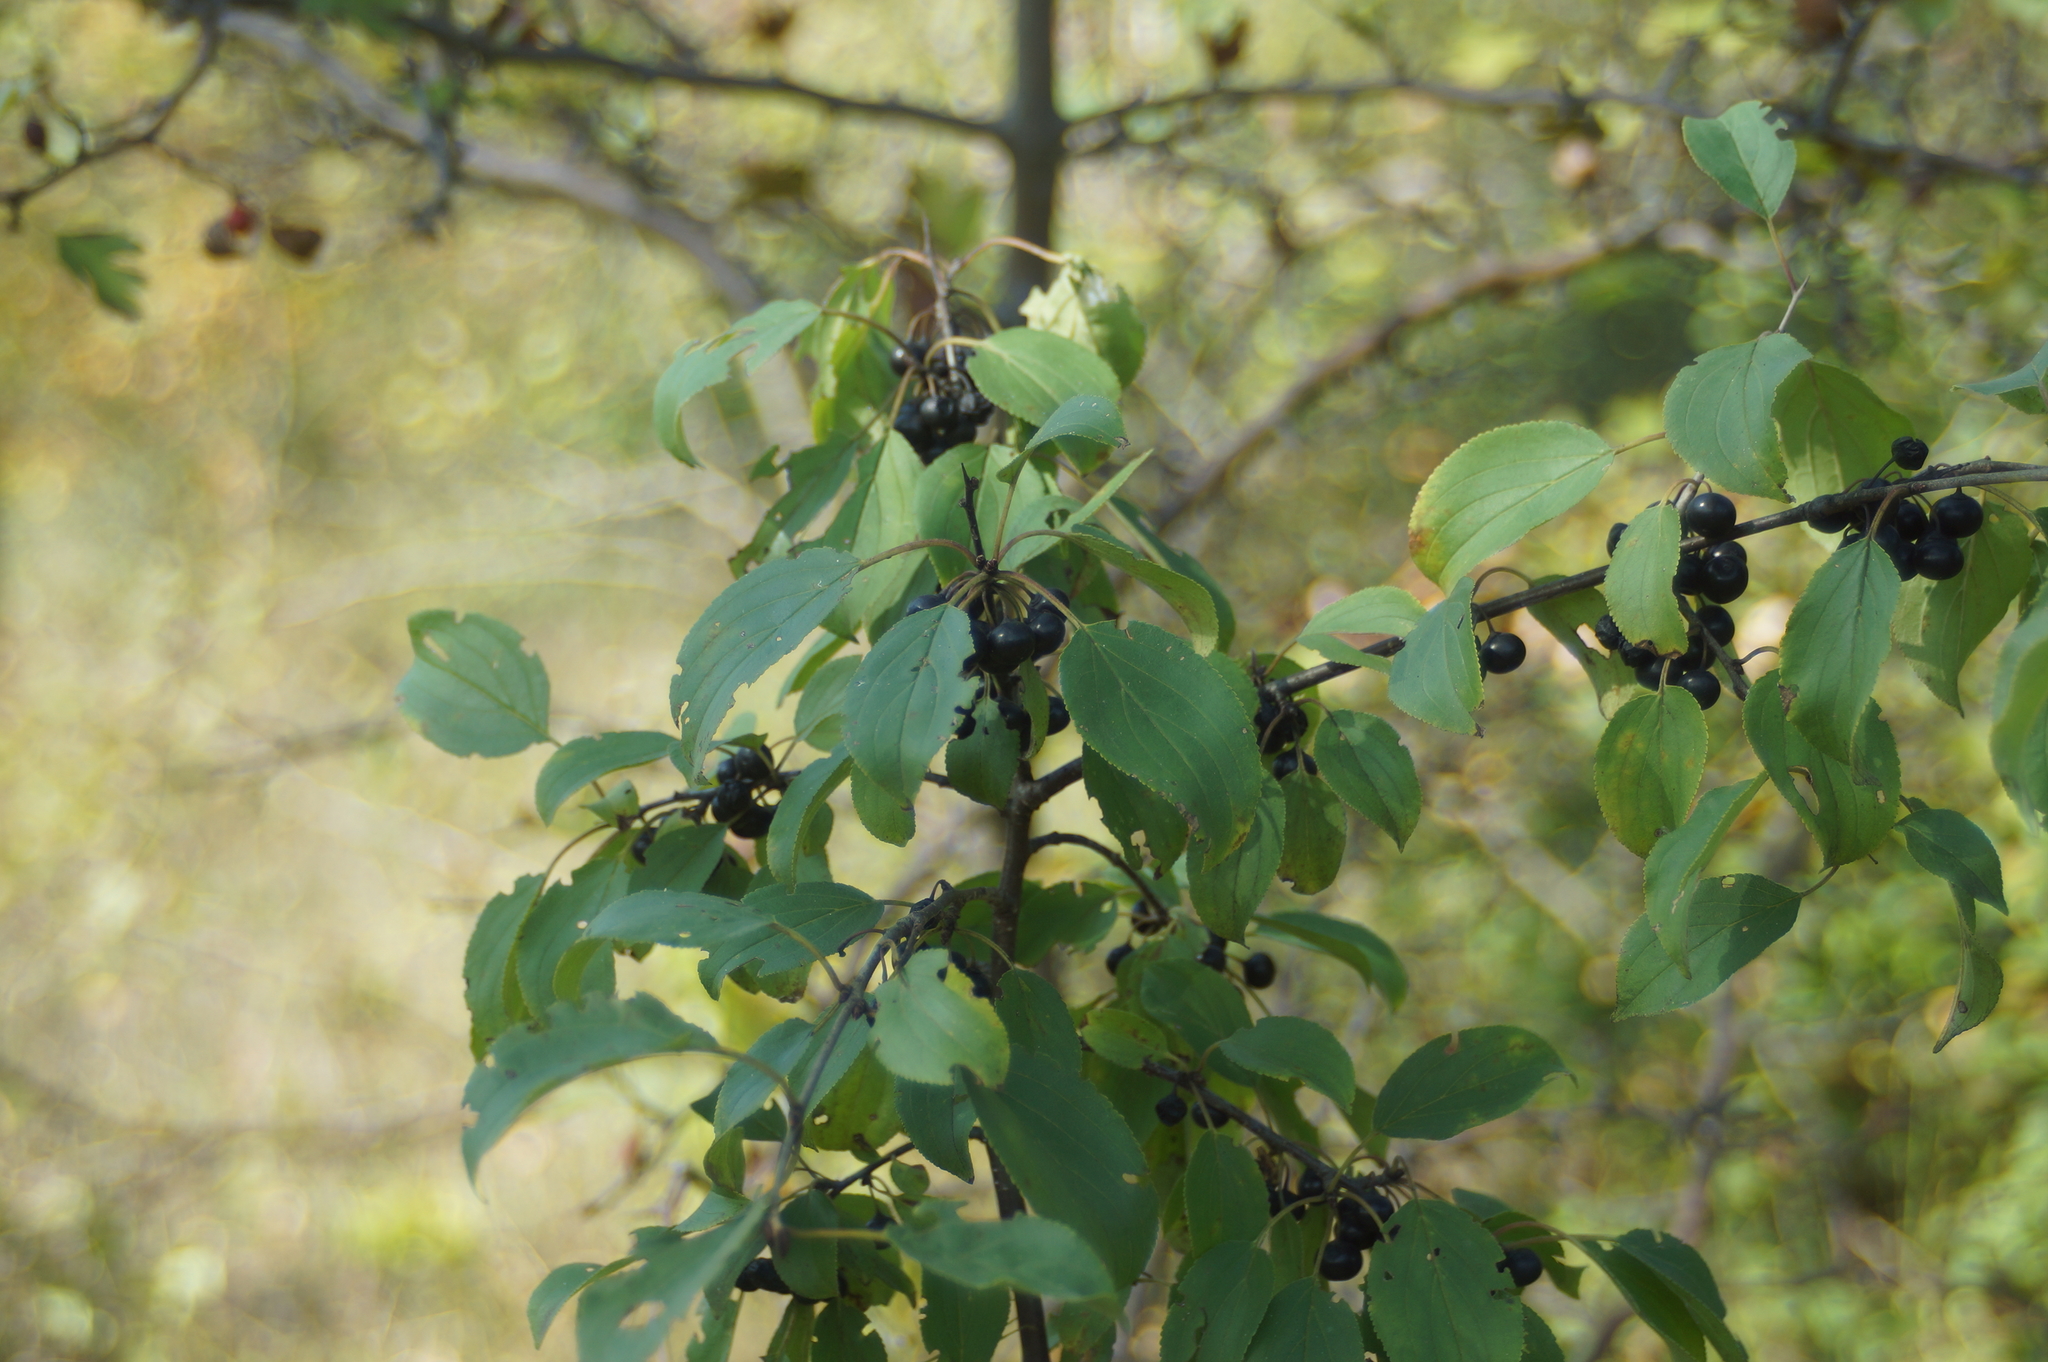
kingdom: Plantae
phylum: Tracheophyta
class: Magnoliopsida
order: Rosales
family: Rhamnaceae
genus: Rhamnus
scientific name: Rhamnus cathartica
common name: Common buckthorn
